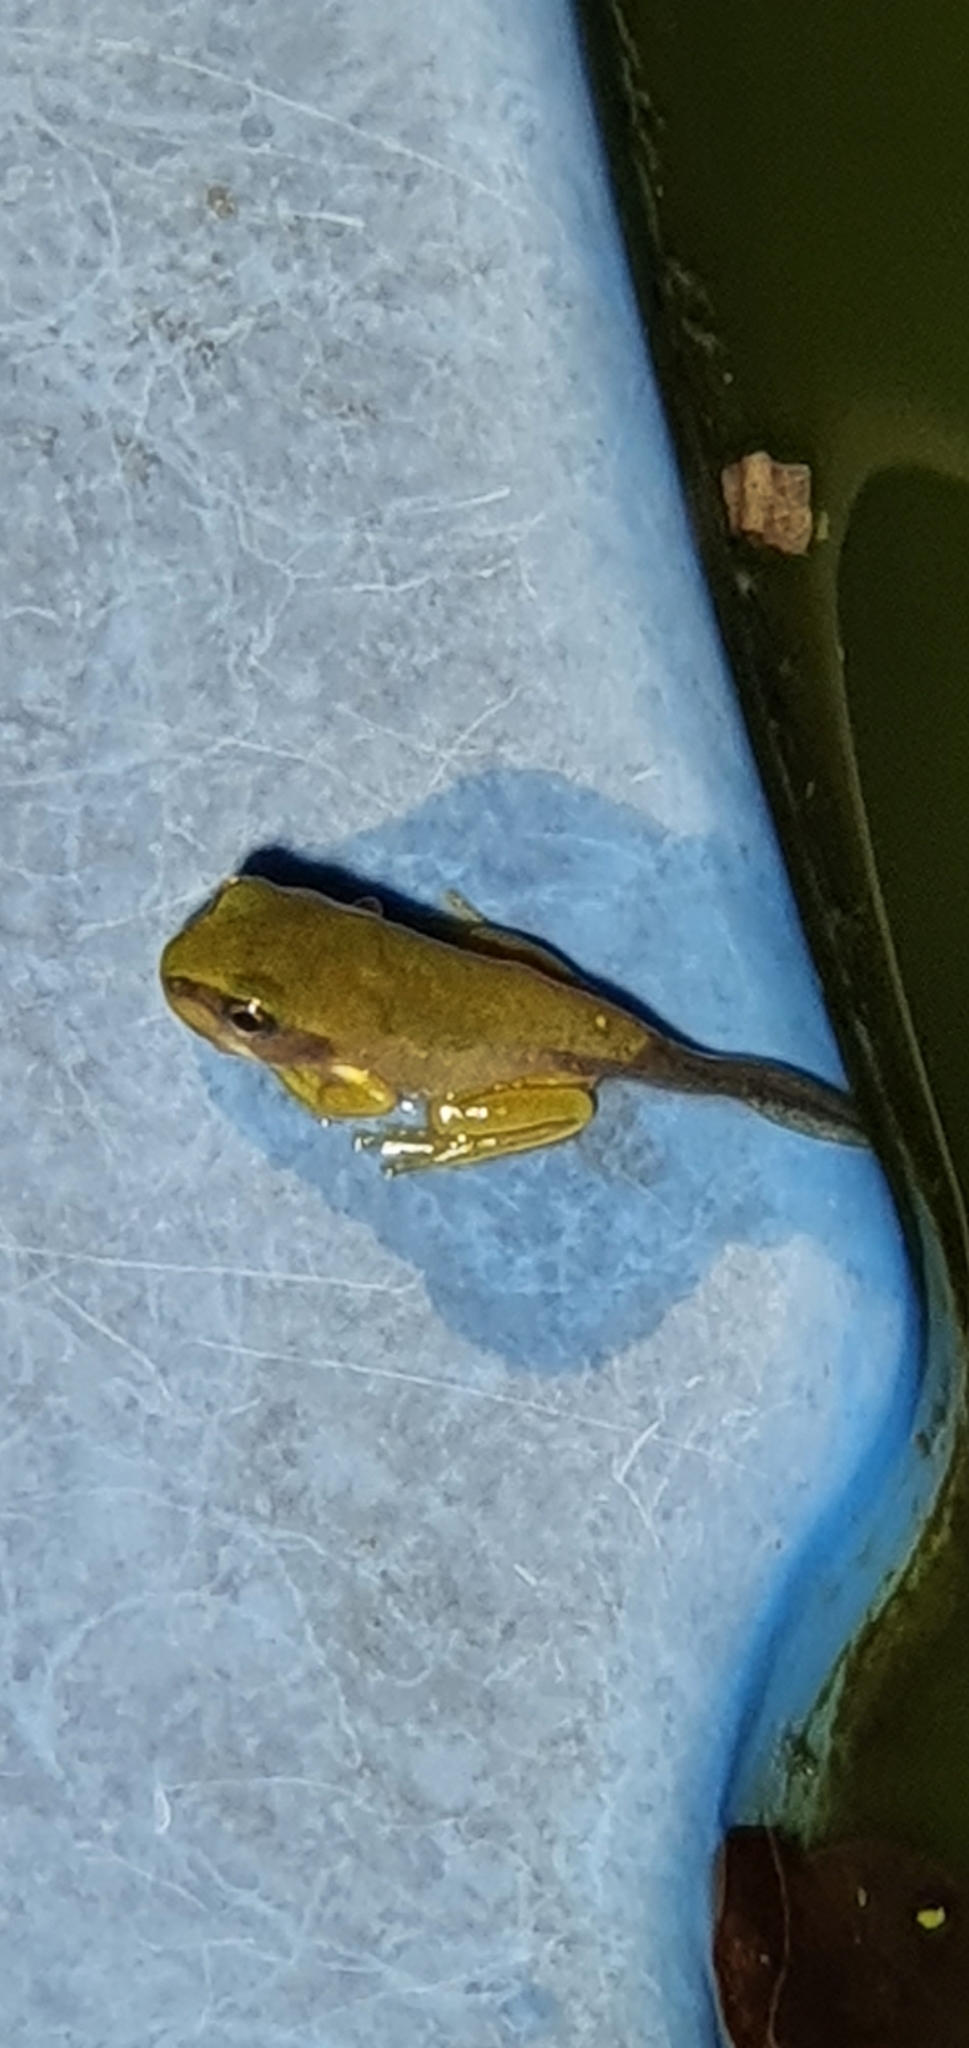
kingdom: Animalia
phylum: Chordata
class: Amphibia
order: Anura
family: Pelodryadidae
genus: Ranoidea
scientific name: Ranoidea caerulea
